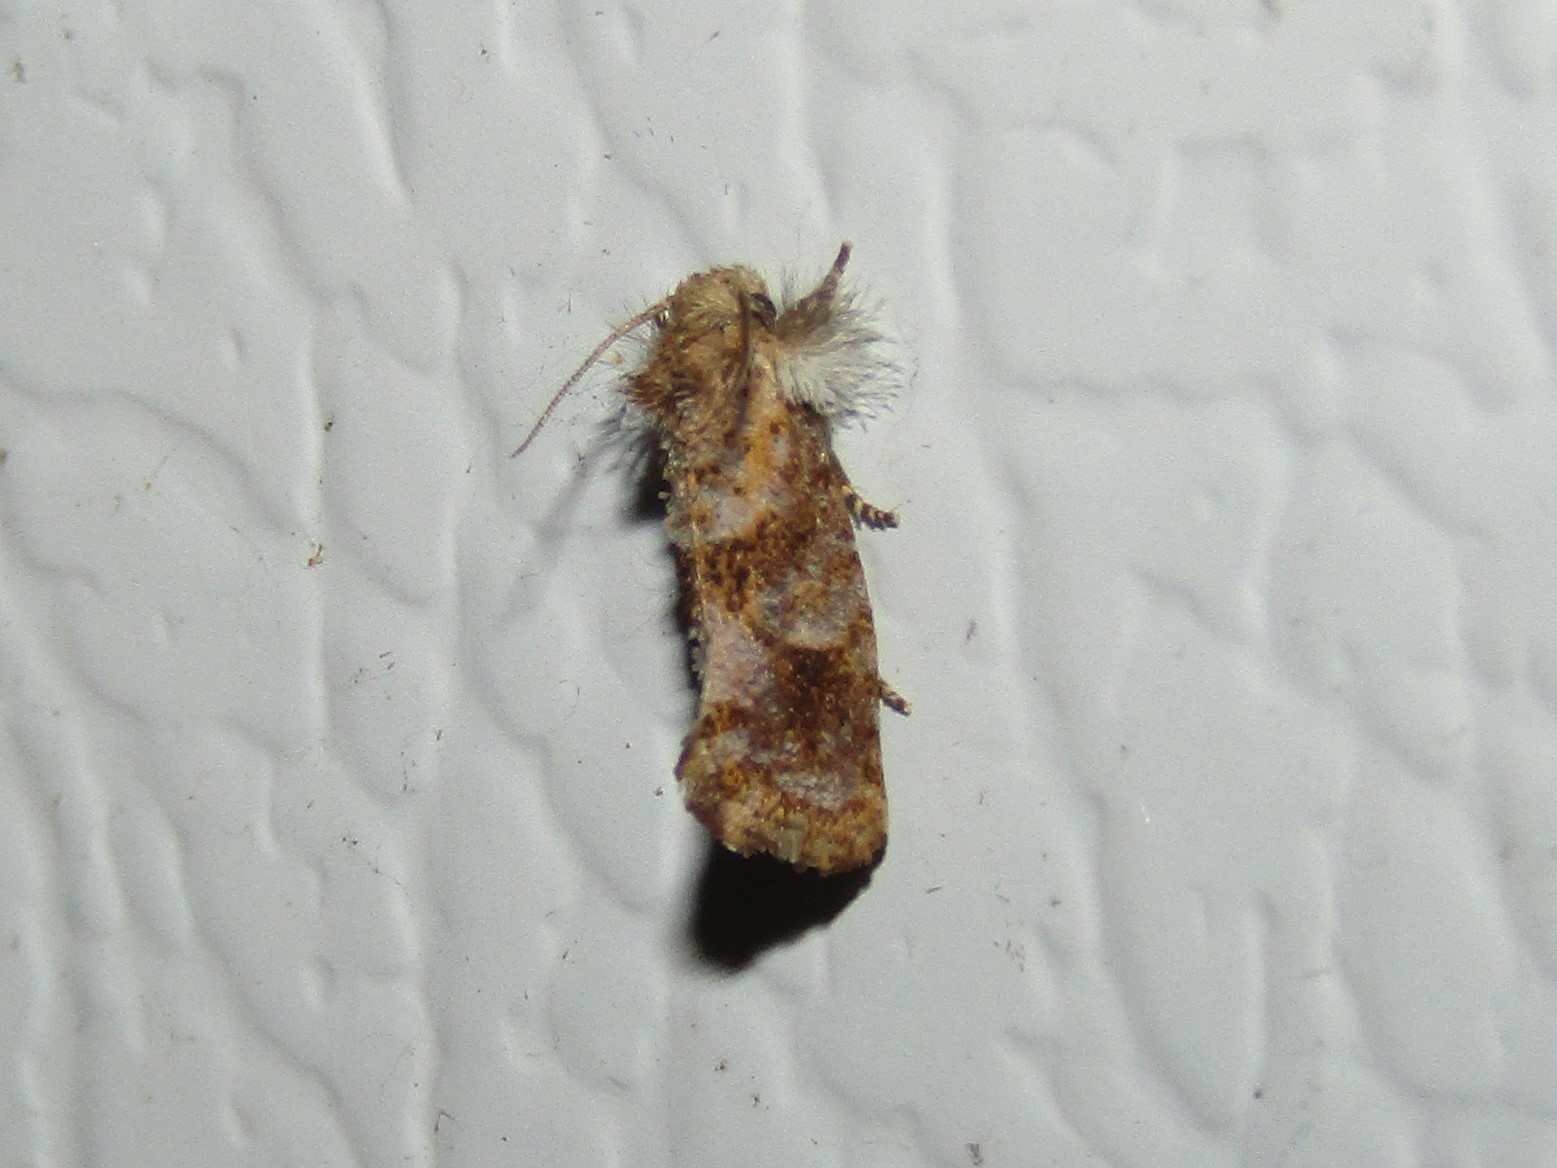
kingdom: Animalia
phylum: Arthropoda
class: Insecta
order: Lepidoptera
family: Tineidae
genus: Acrolophus
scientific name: Acrolophus panamae
